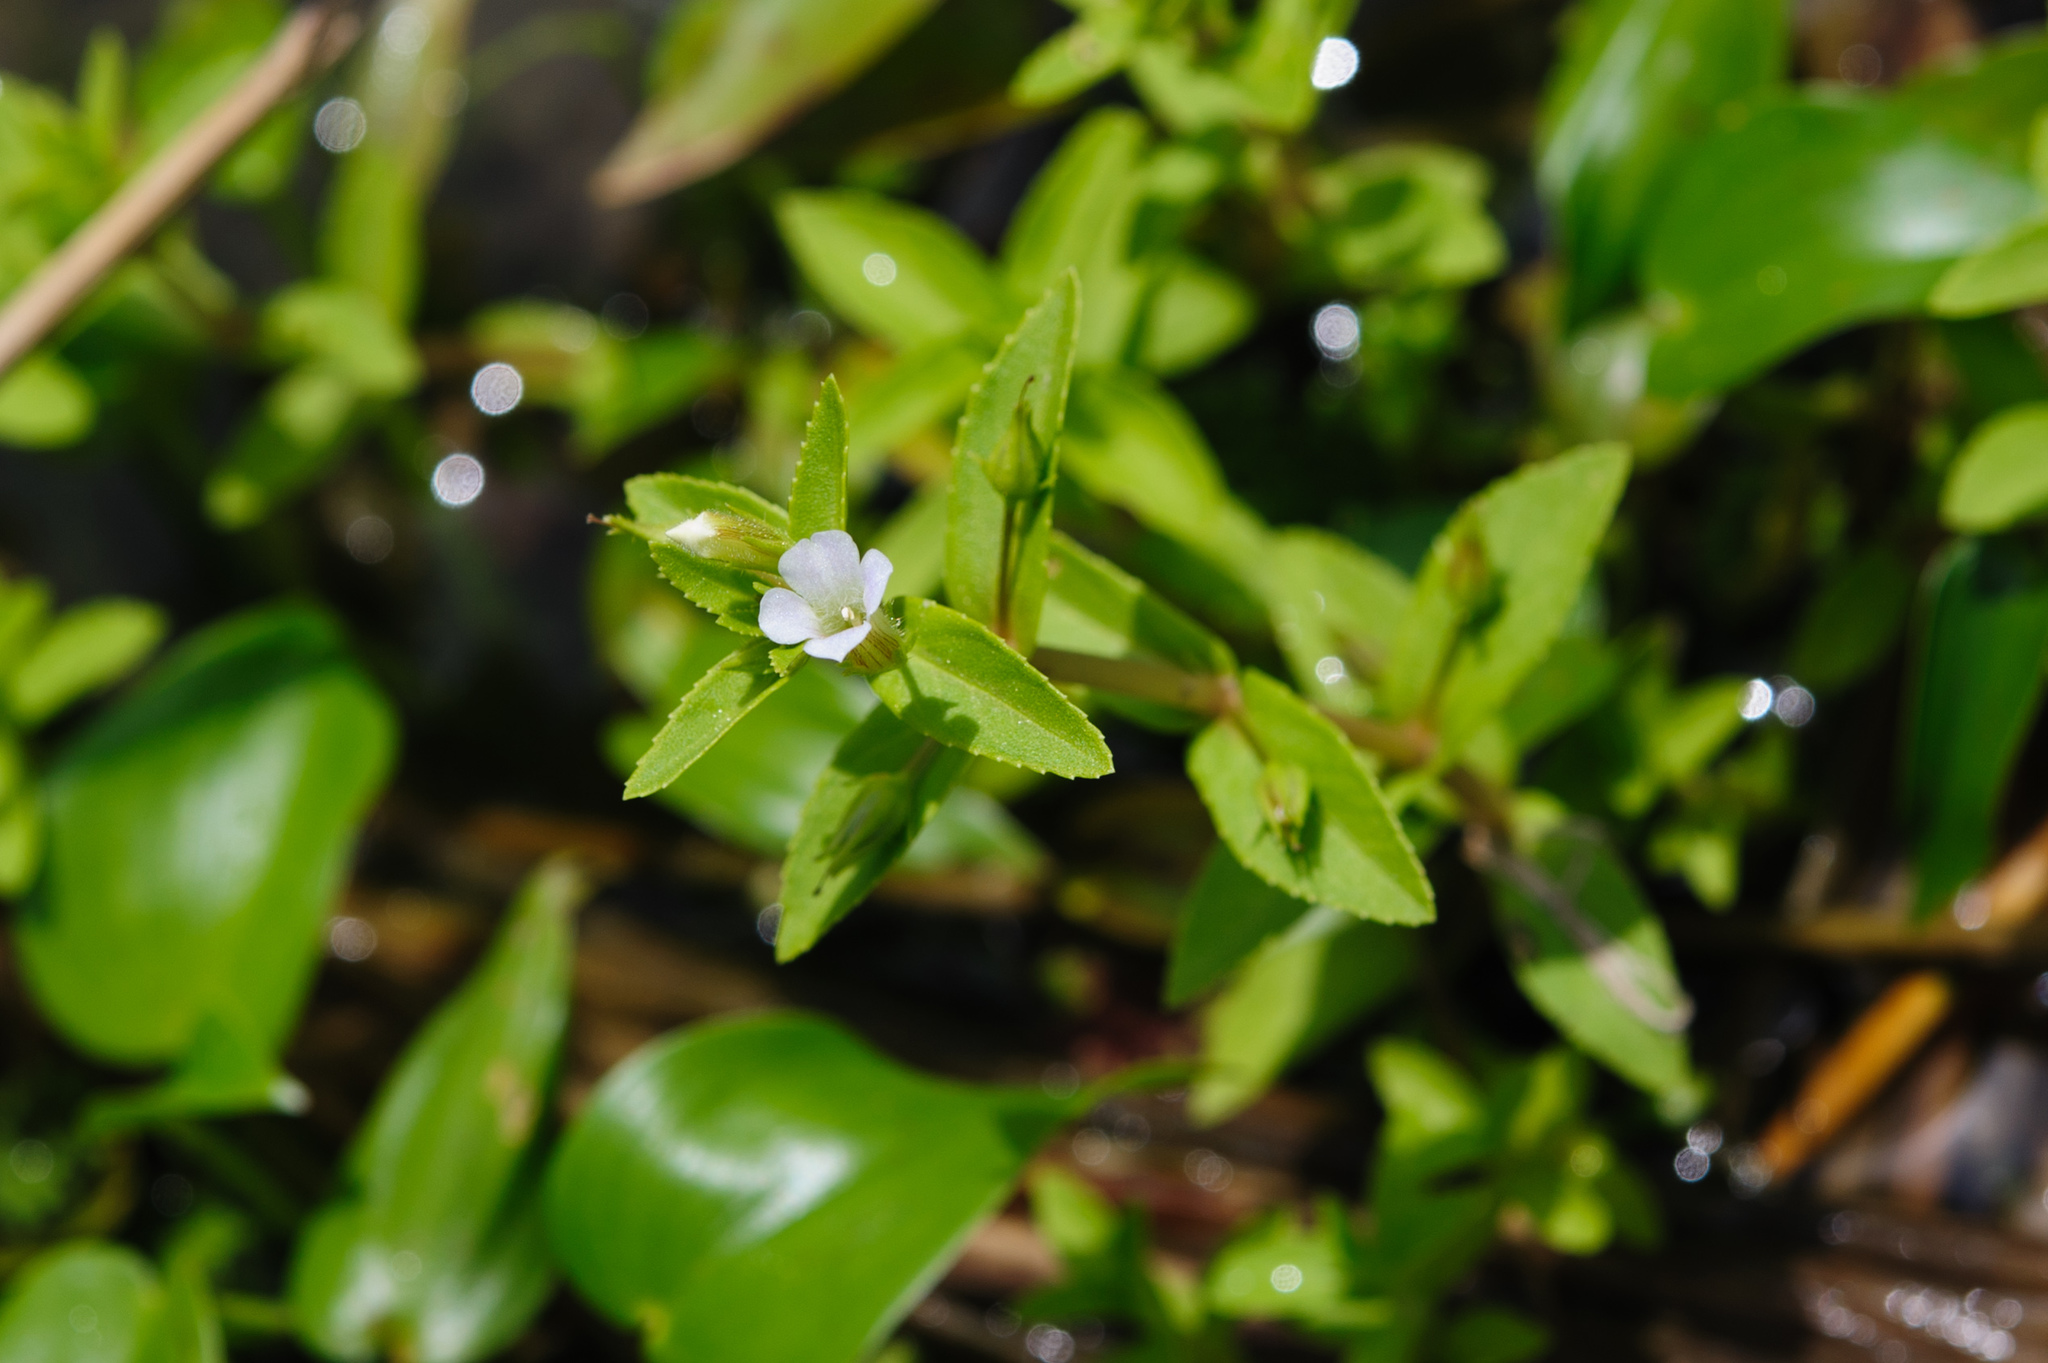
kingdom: Plantae
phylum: Tracheophyta
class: Magnoliopsida
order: Lamiales
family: Plantaginaceae
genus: Limnophila
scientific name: Limnophila aromatica
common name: Finger grass
